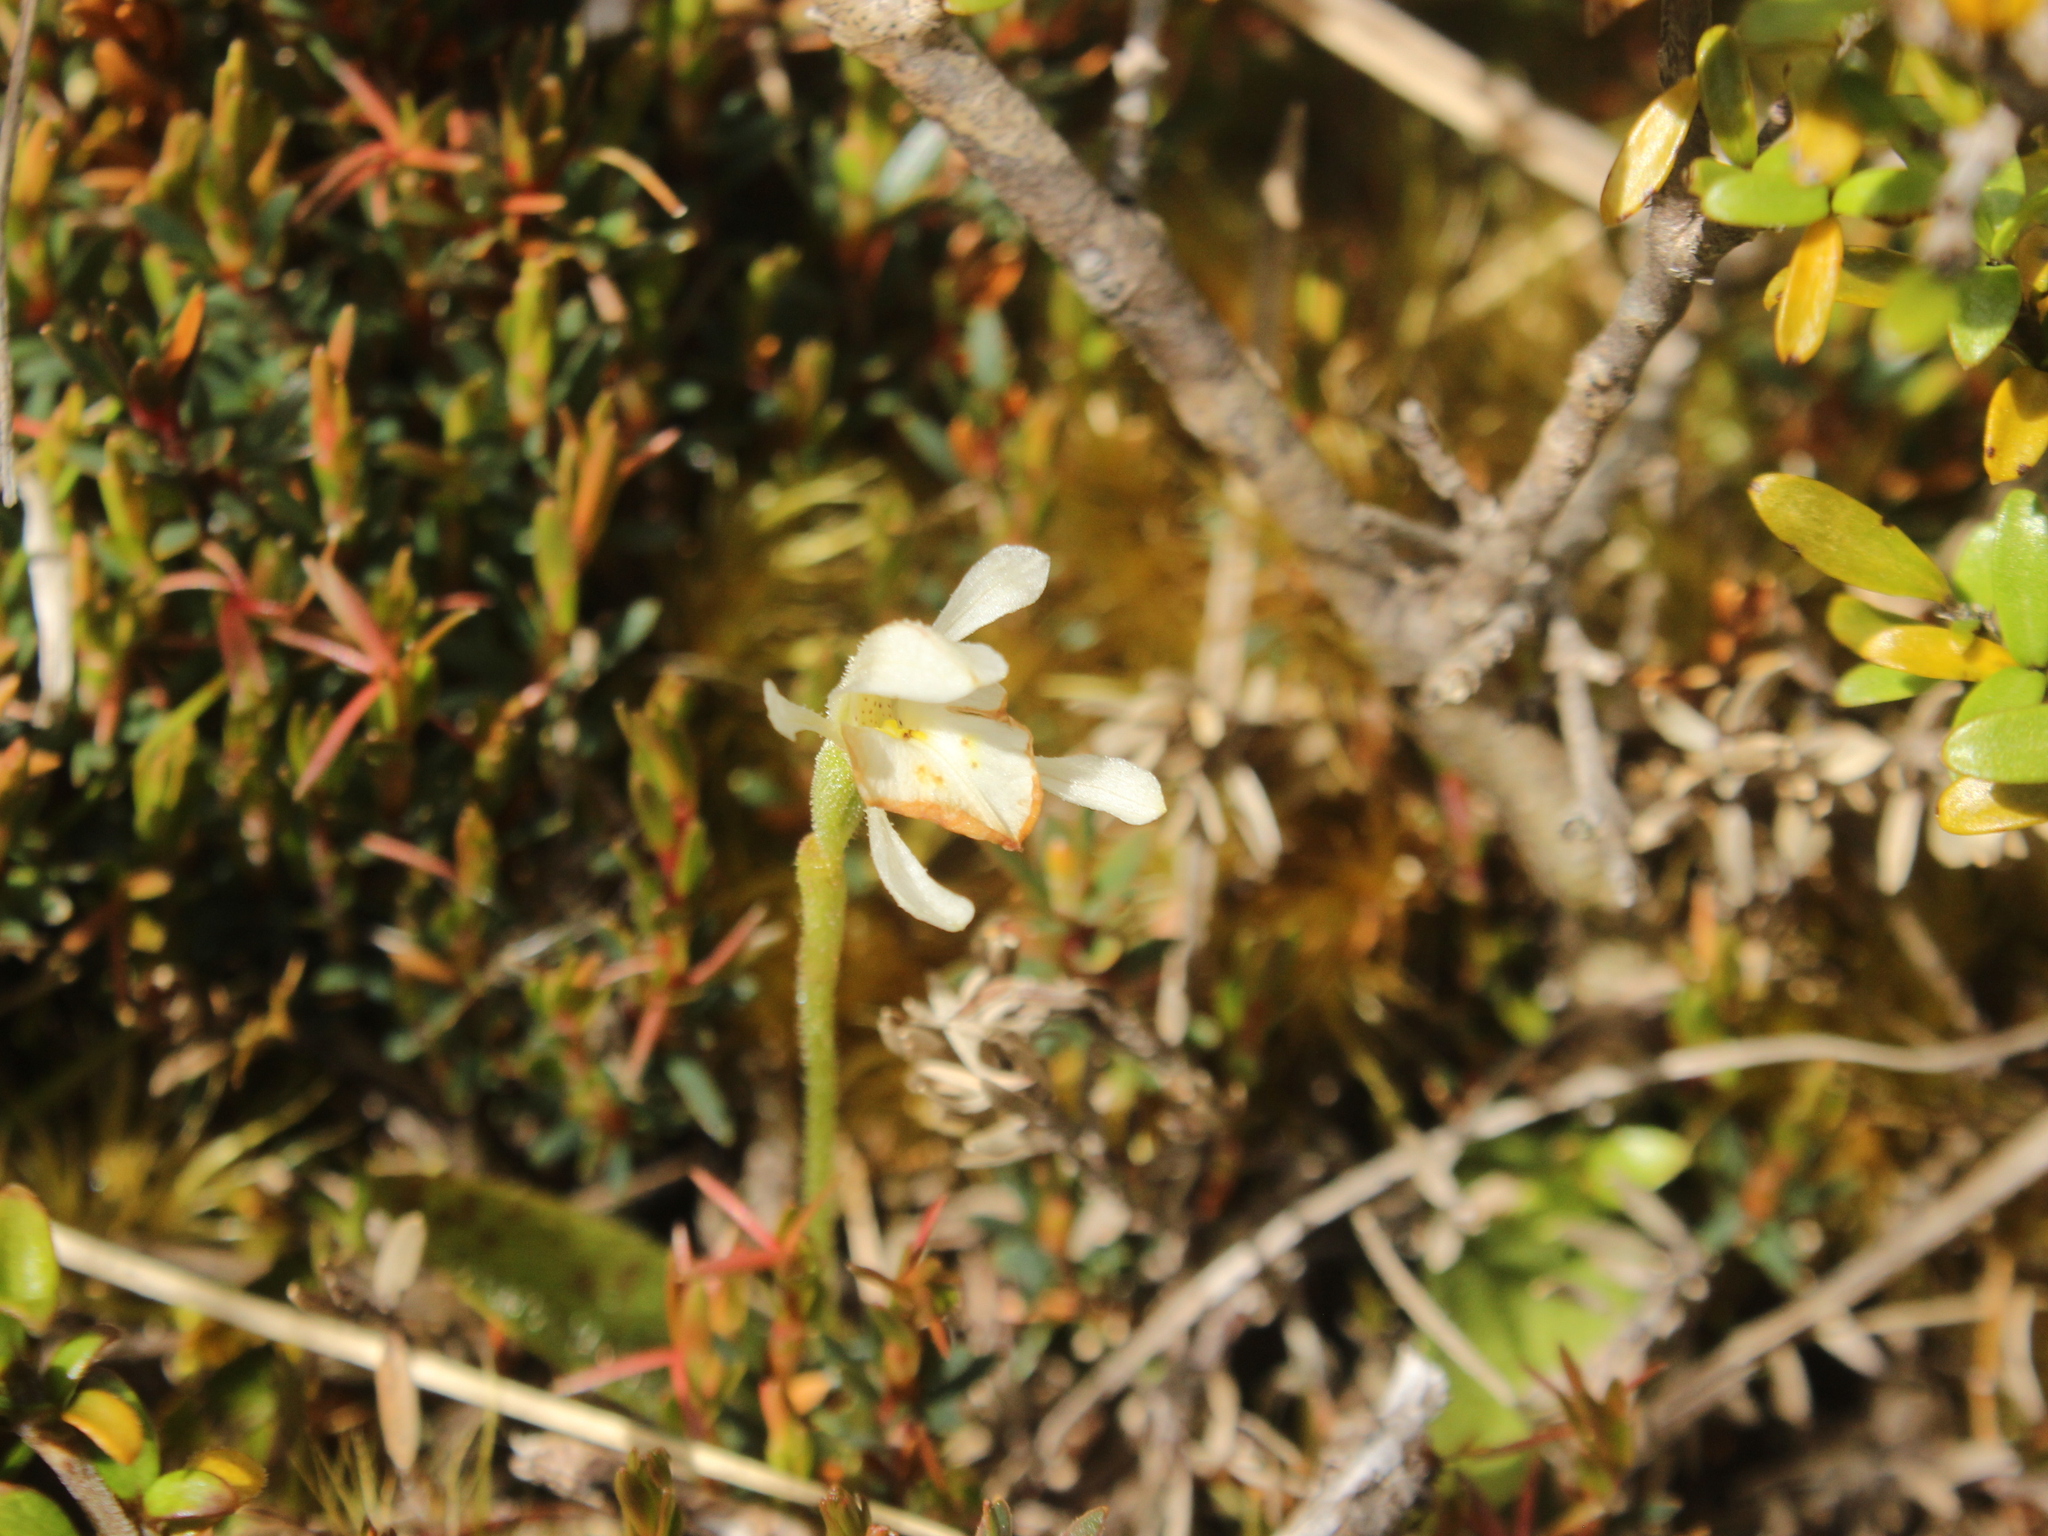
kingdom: Plantae
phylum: Tracheophyta
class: Liliopsida
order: Asparagales
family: Orchidaceae
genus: Aporostylis
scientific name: Aporostylis bifolia
